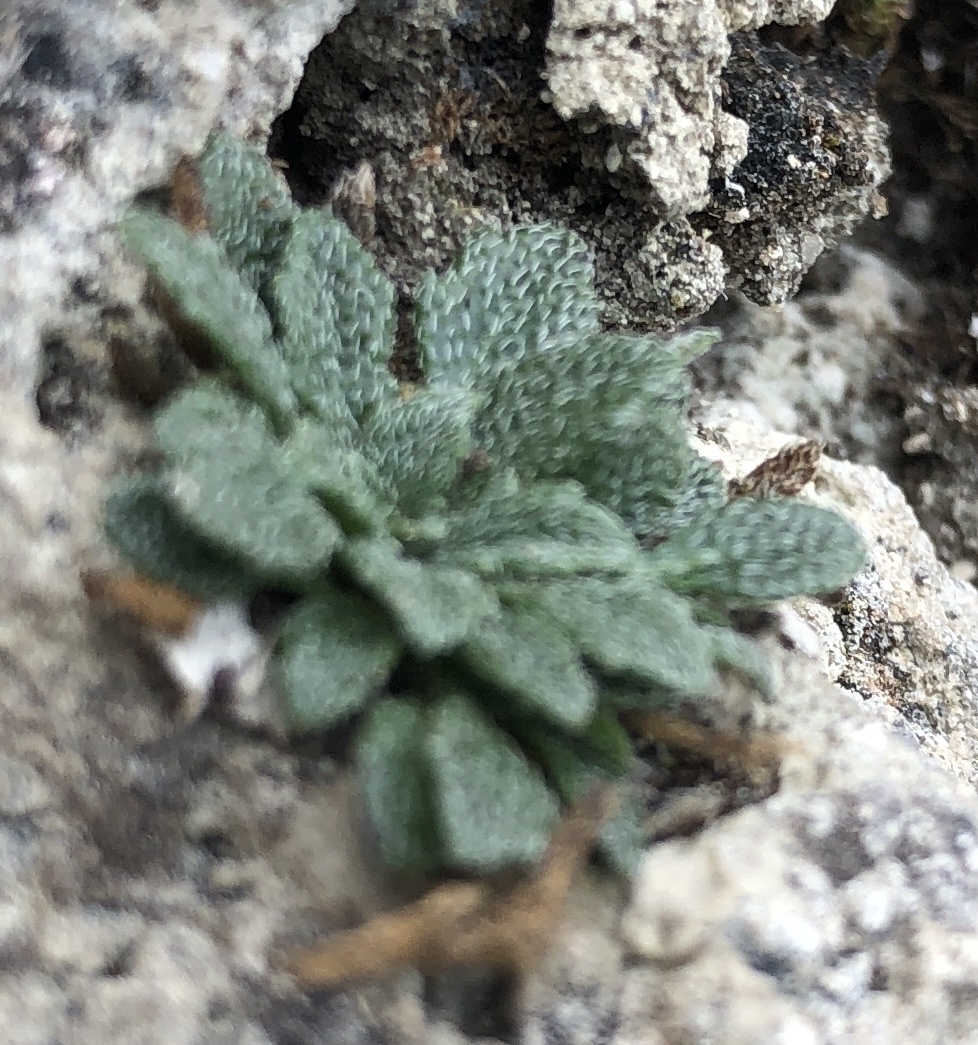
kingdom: Plantae
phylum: Tracheophyta
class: Magnoliopsida
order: Brassicales
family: Brassicaceae
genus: Kernera
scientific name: Kernera saxatilis
